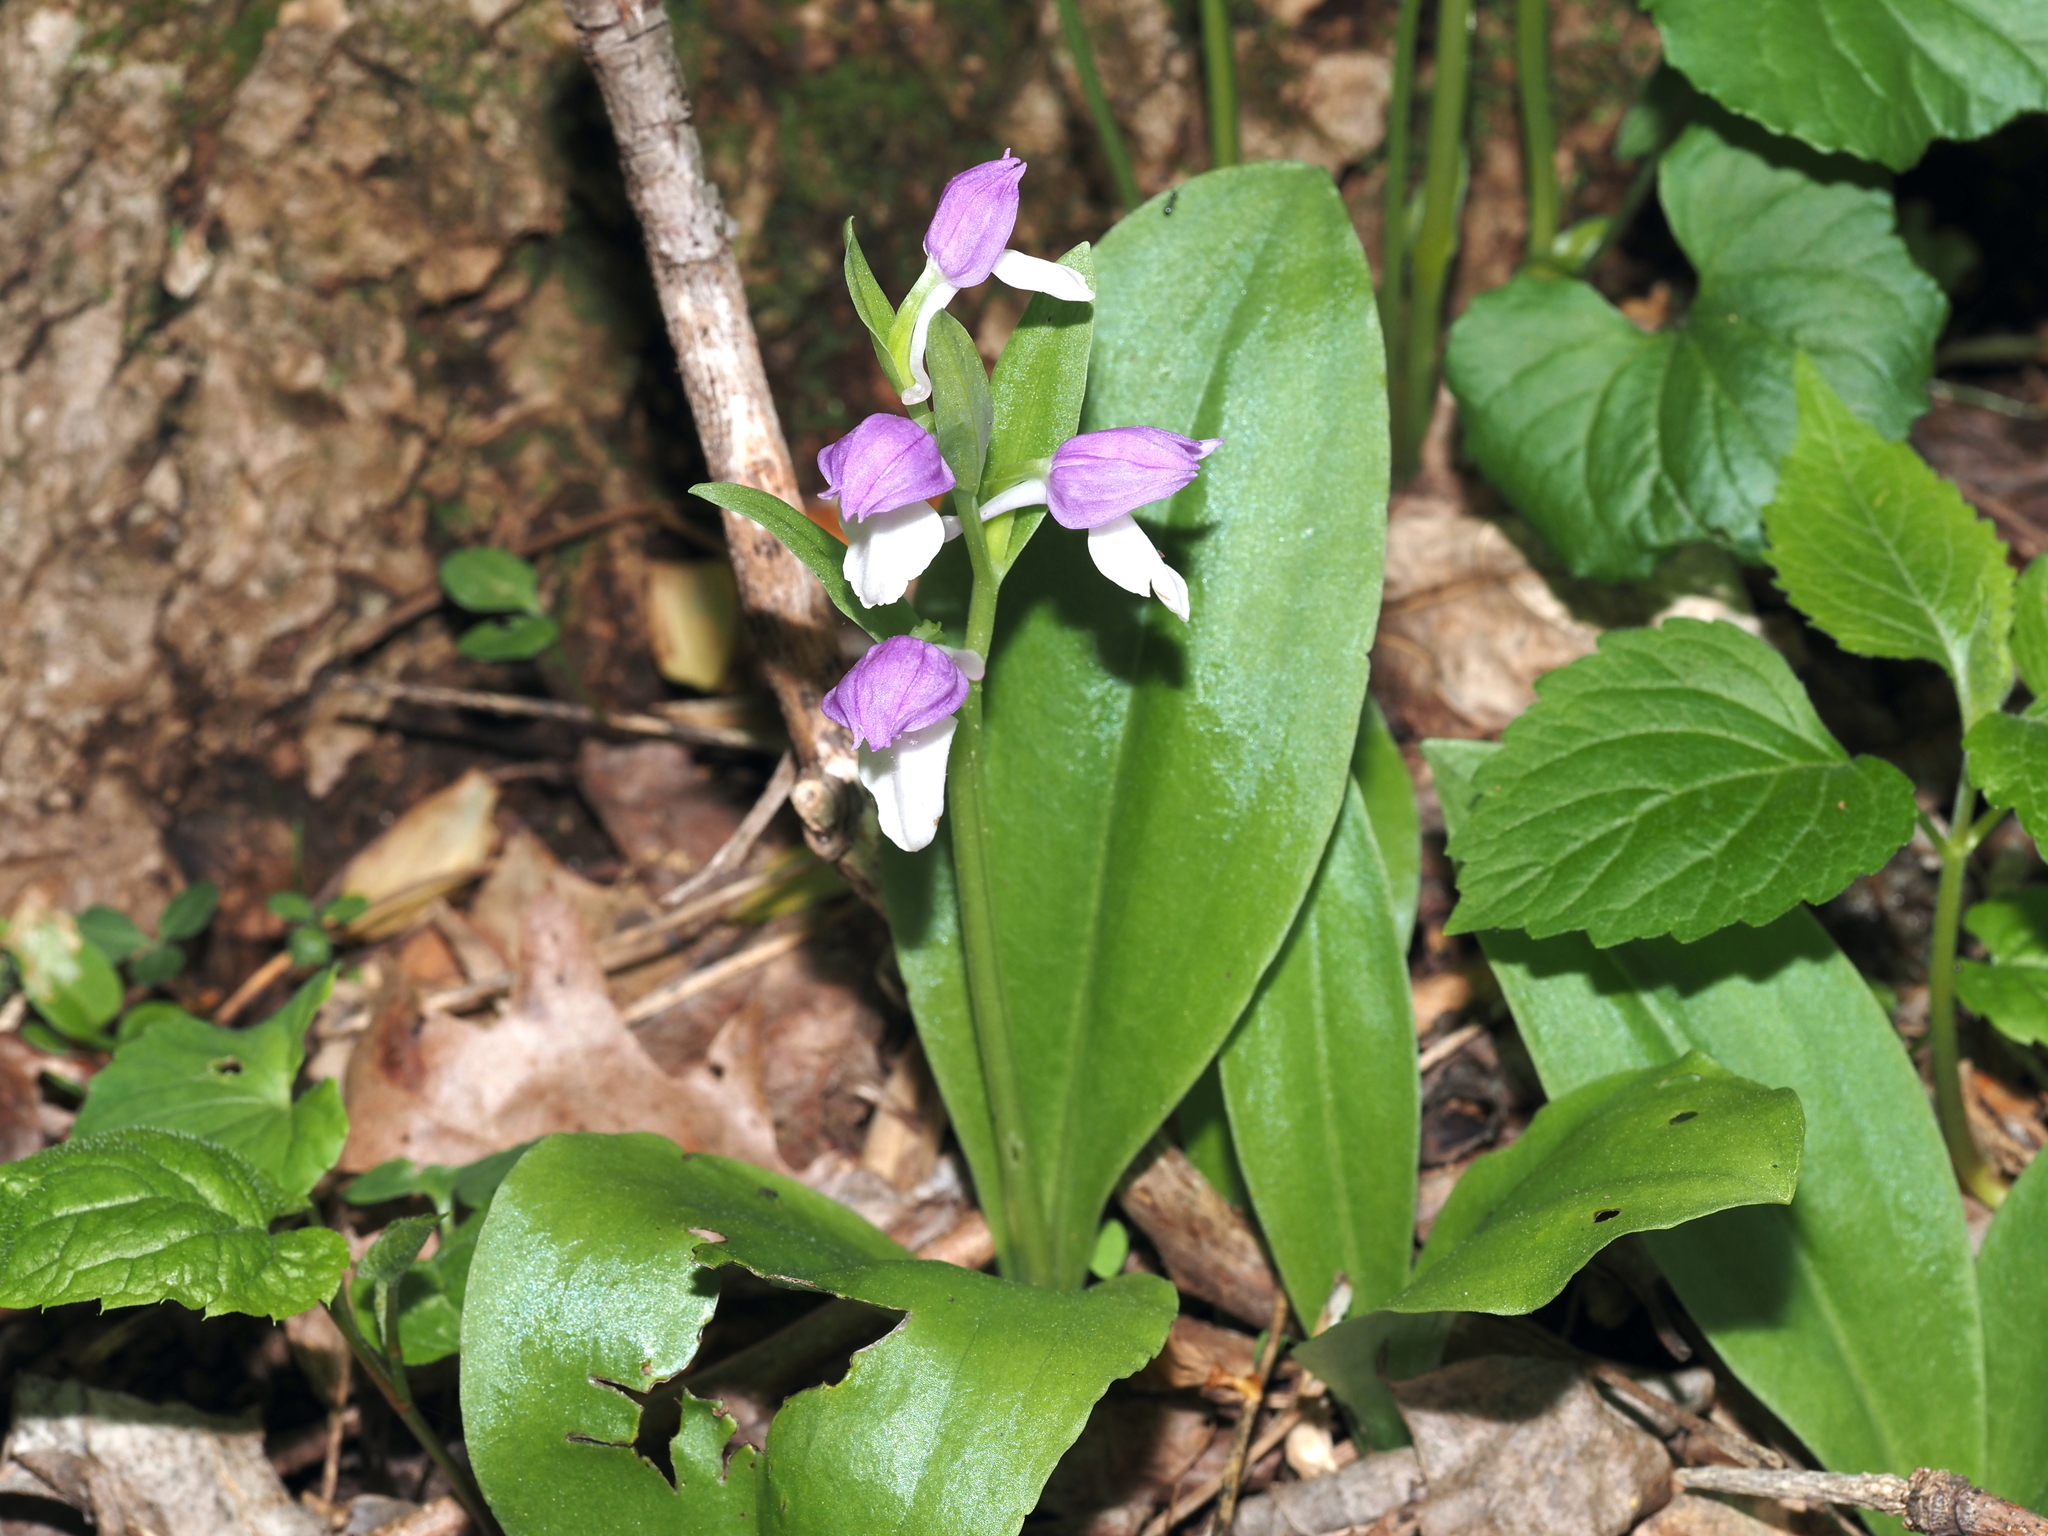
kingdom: Plantae
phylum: Tracheophyta
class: Liliopsida
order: Asparagales
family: Orchidaceae
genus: Galearis
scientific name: Galearis spectabilis
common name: Purple-hooded orchis
